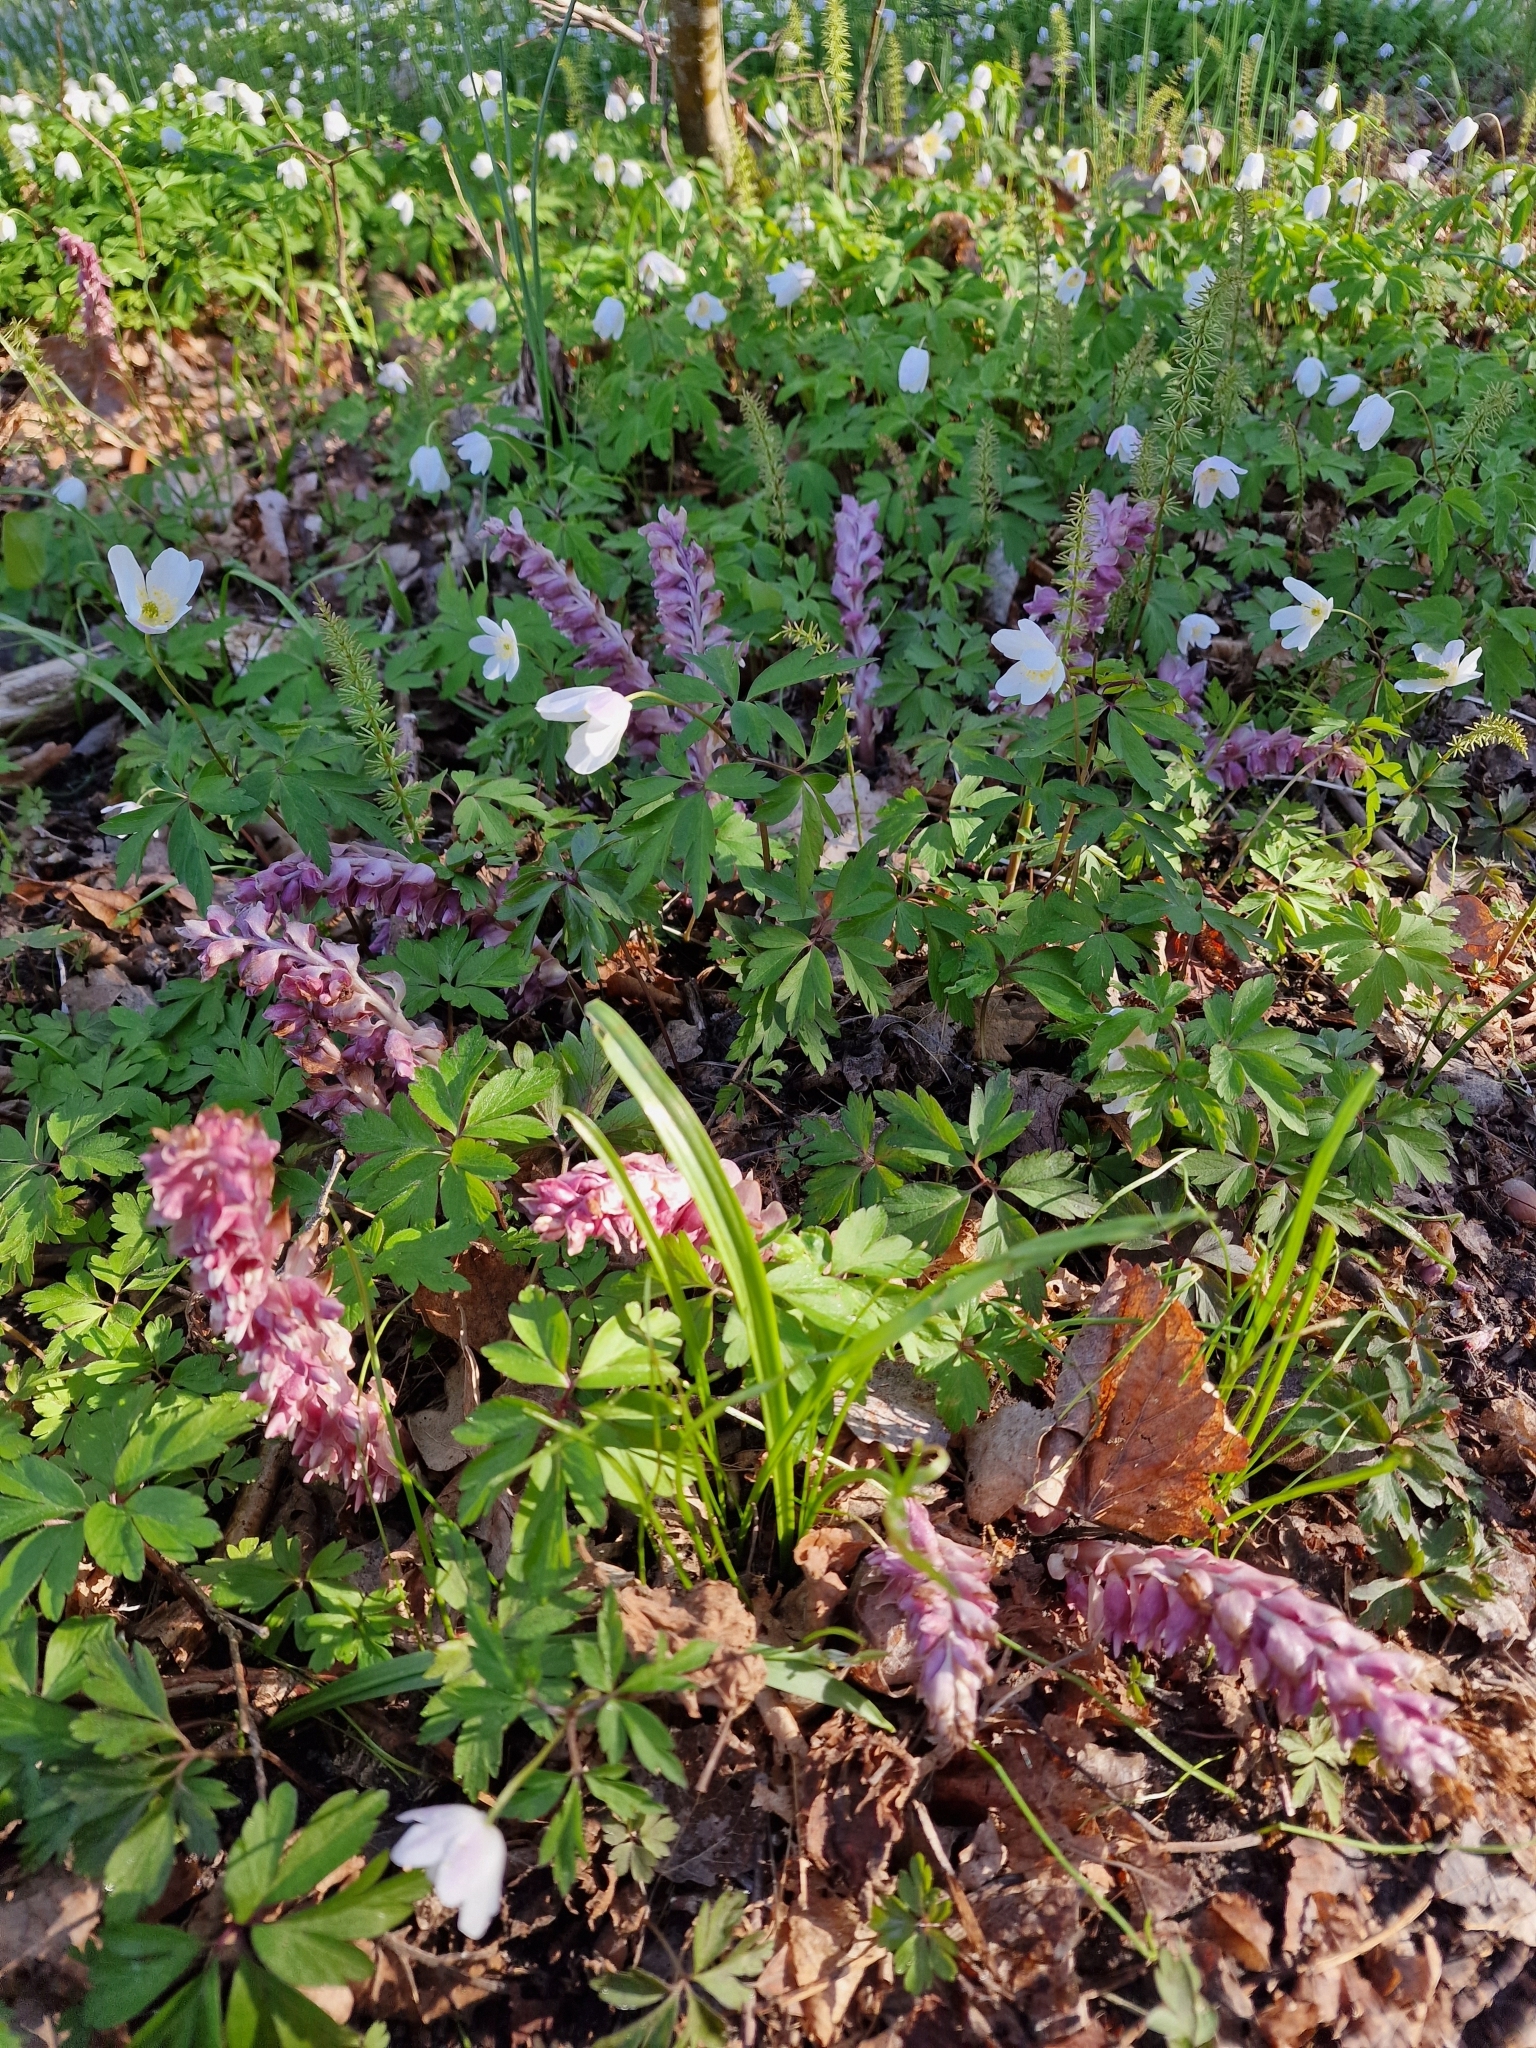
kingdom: Plantae
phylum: Tracheophyta
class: Magnoliopsida
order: Lamiales
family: Orobanchaceae
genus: Lathraea
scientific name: Lathraea squamaria
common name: Toothwort
